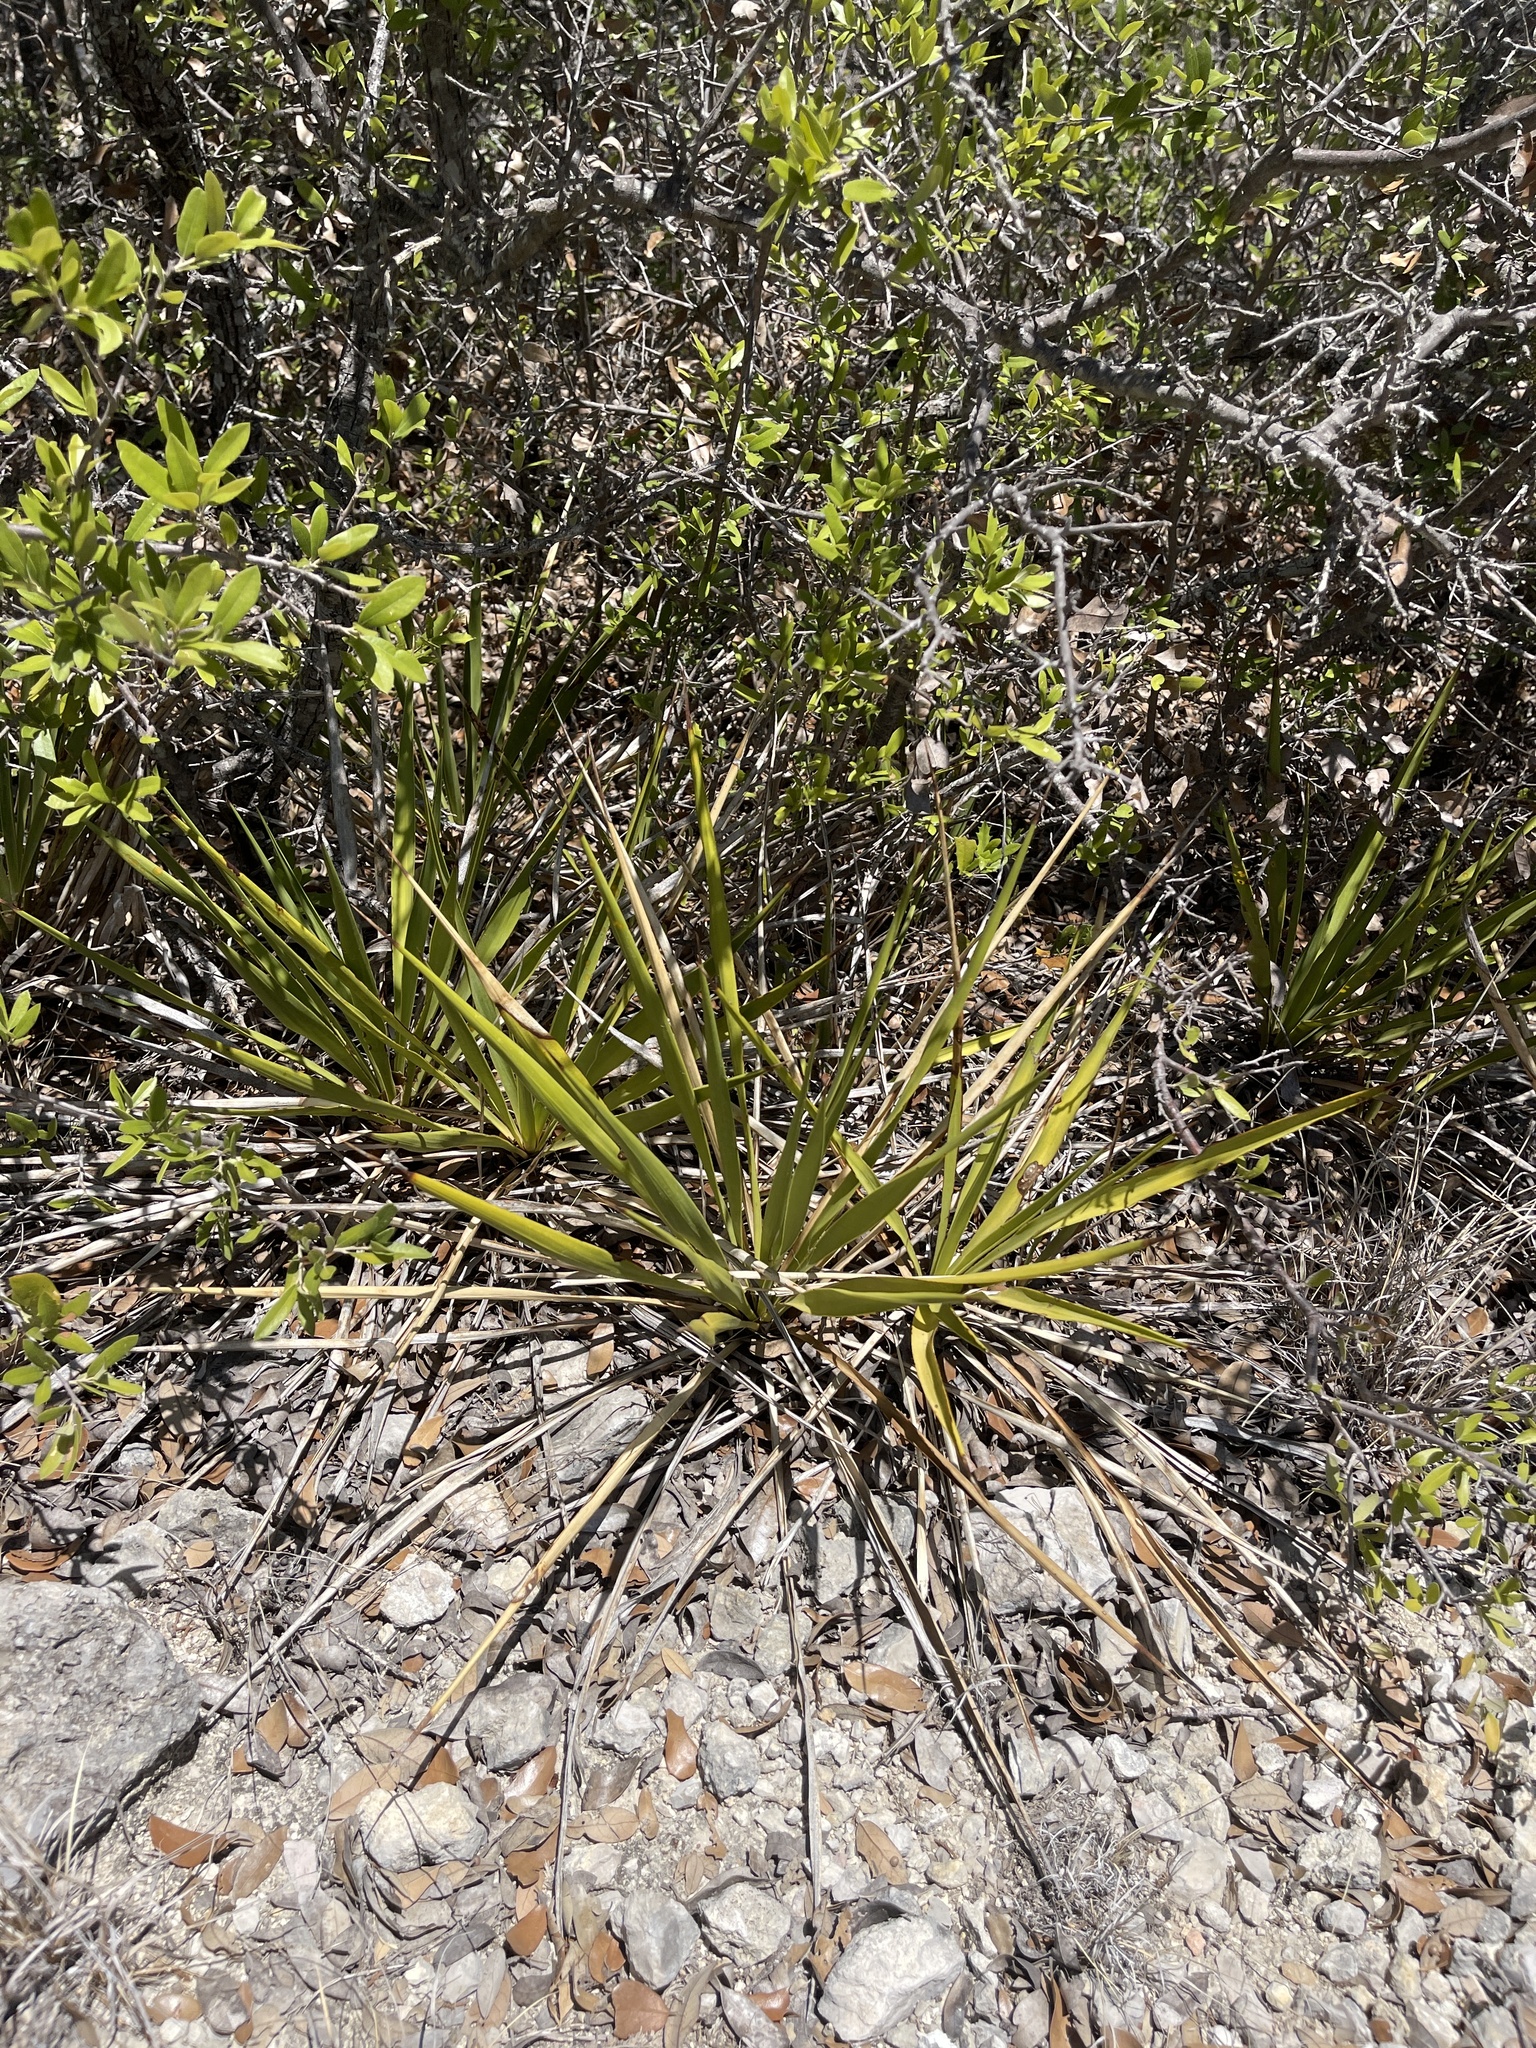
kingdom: Plantae
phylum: Tracheophyta
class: Liliopsida
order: Asparagales
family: Asparagaceae
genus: Yucca
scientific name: Yucca reverchonii
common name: San angelo yucca
